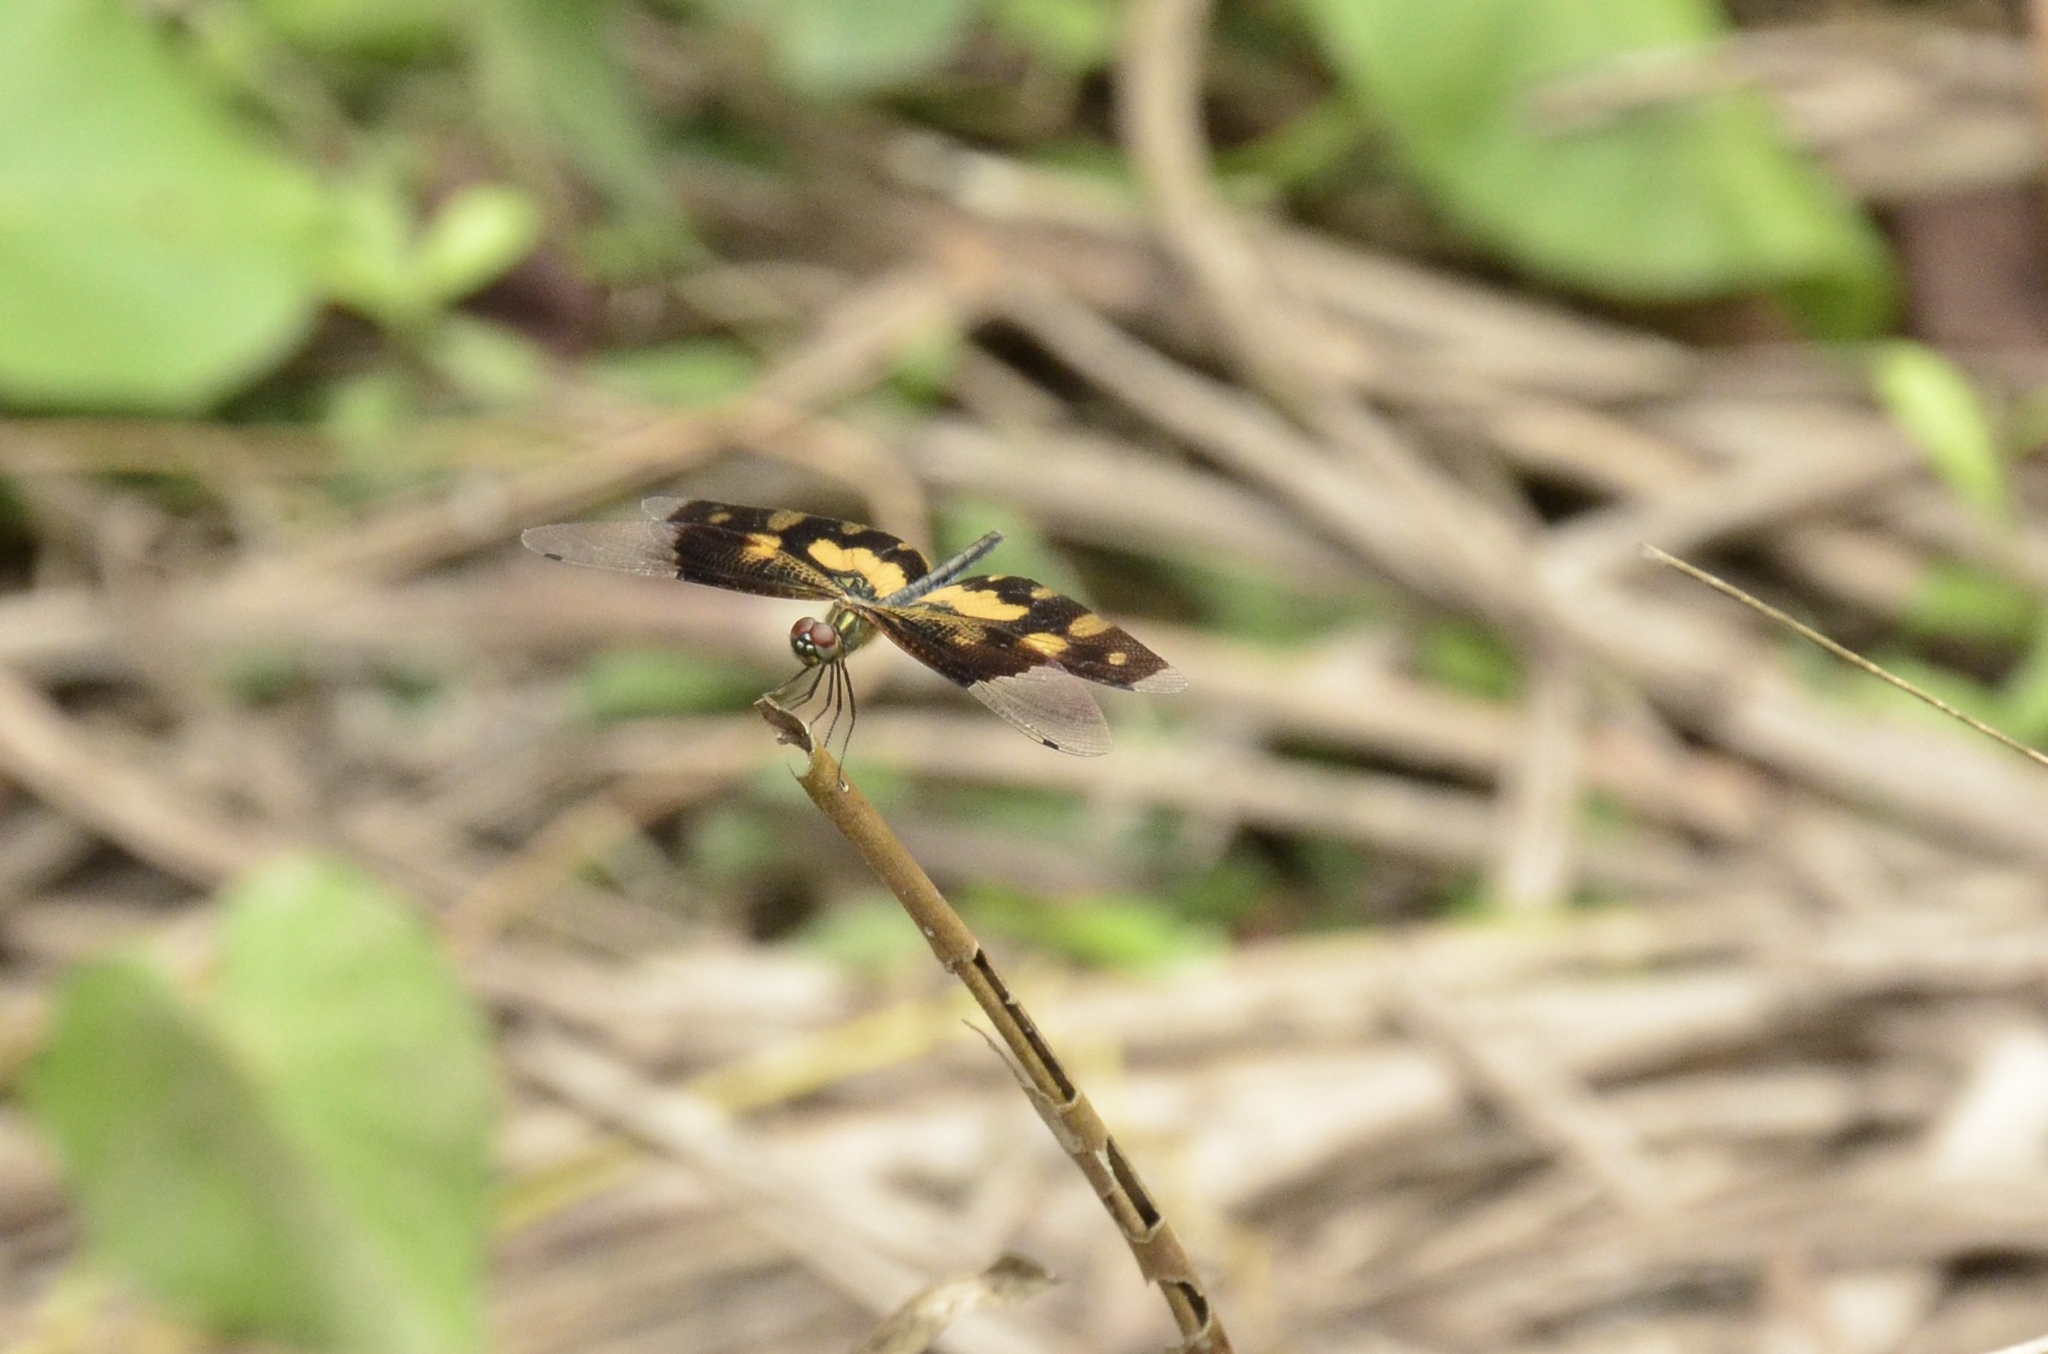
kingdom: Animalia
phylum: Arthropoda
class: Insecta
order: Odonata
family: Libellulidae
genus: Rhyothemis
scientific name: Rhyothemis variegata
